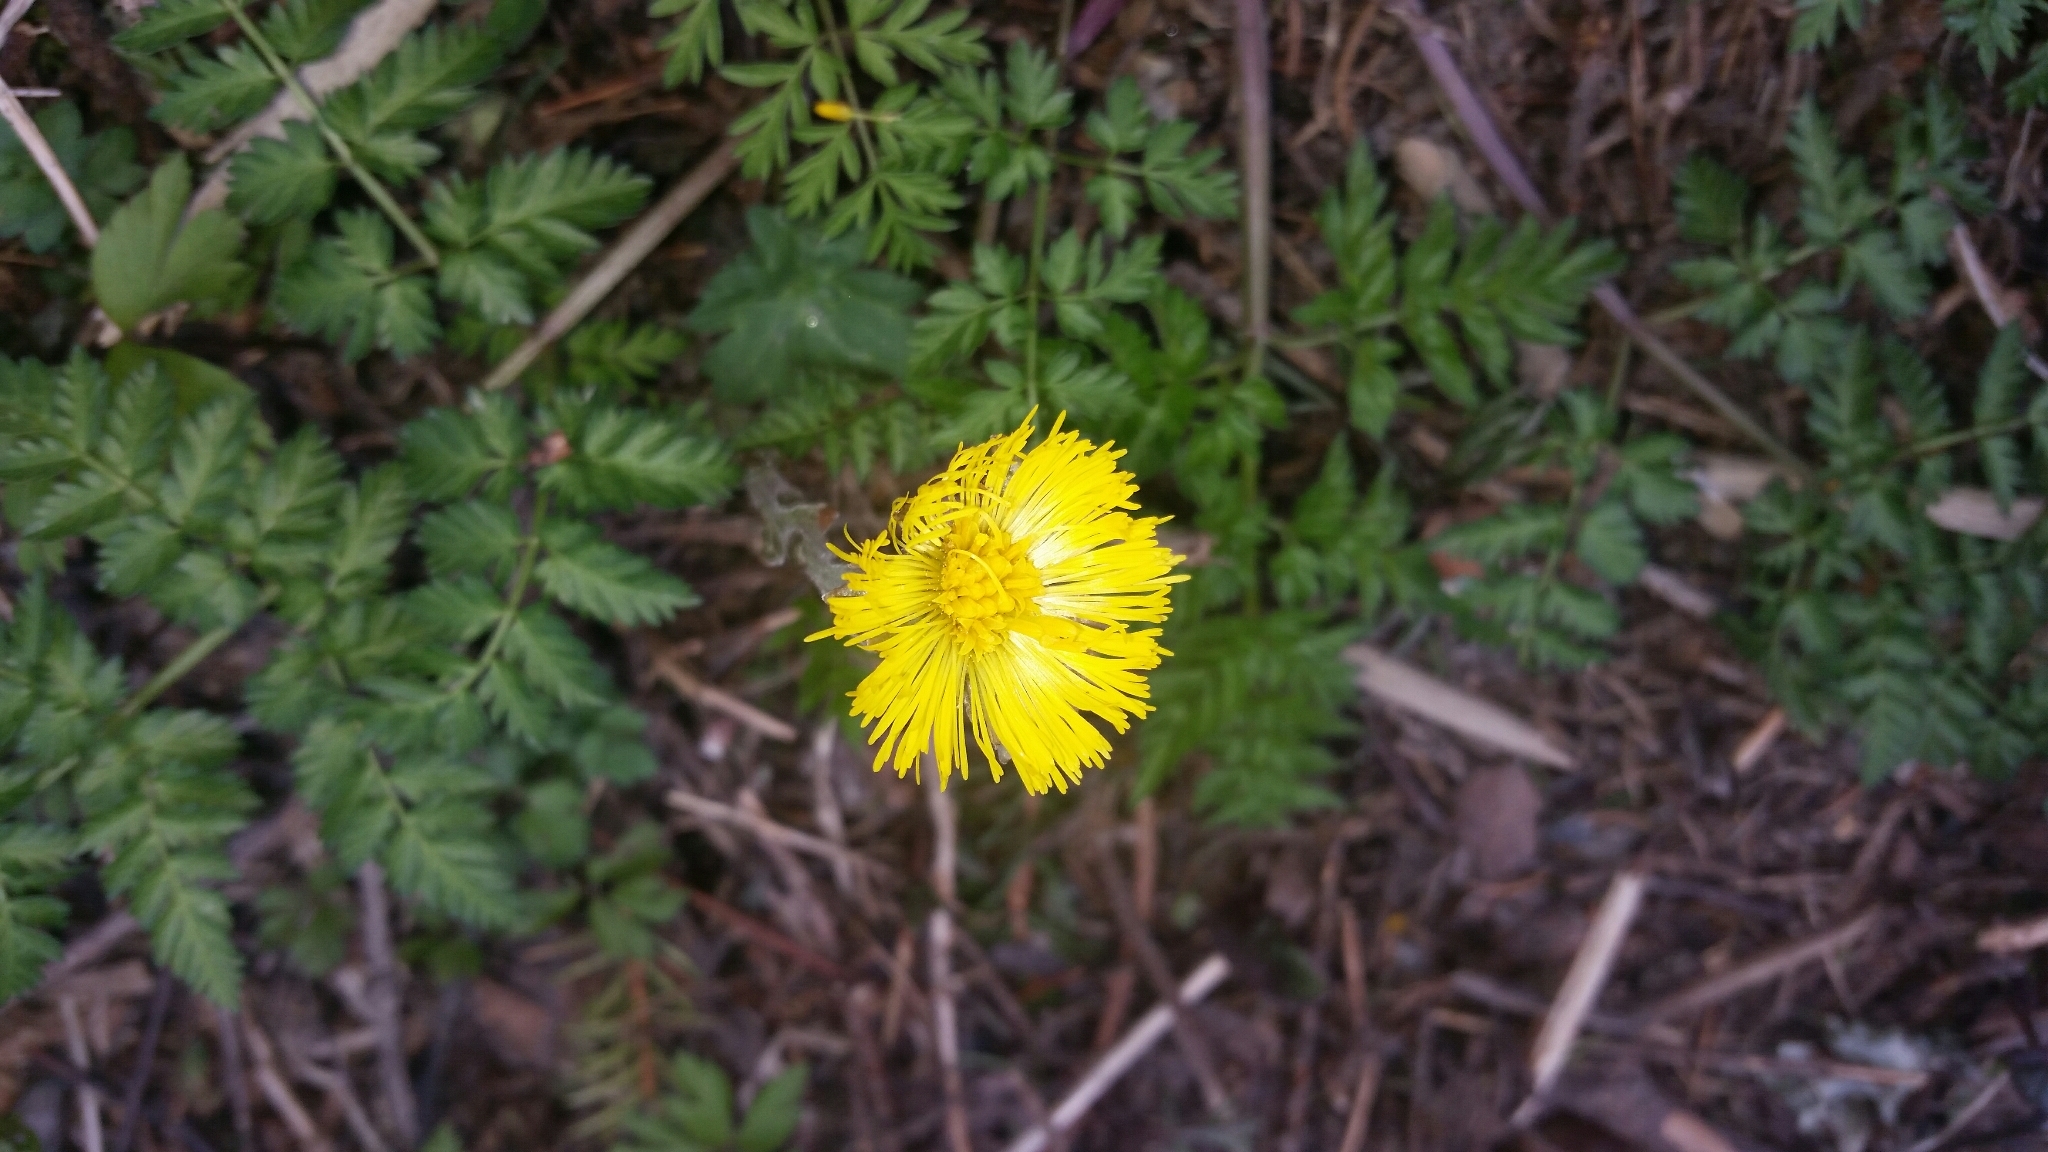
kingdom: Plantae
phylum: Tracheophyta
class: Magnoliopsida
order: Asterales
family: Asteraceae
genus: Tussilago
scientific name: Tussilago farfara
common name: Coltsfoot
